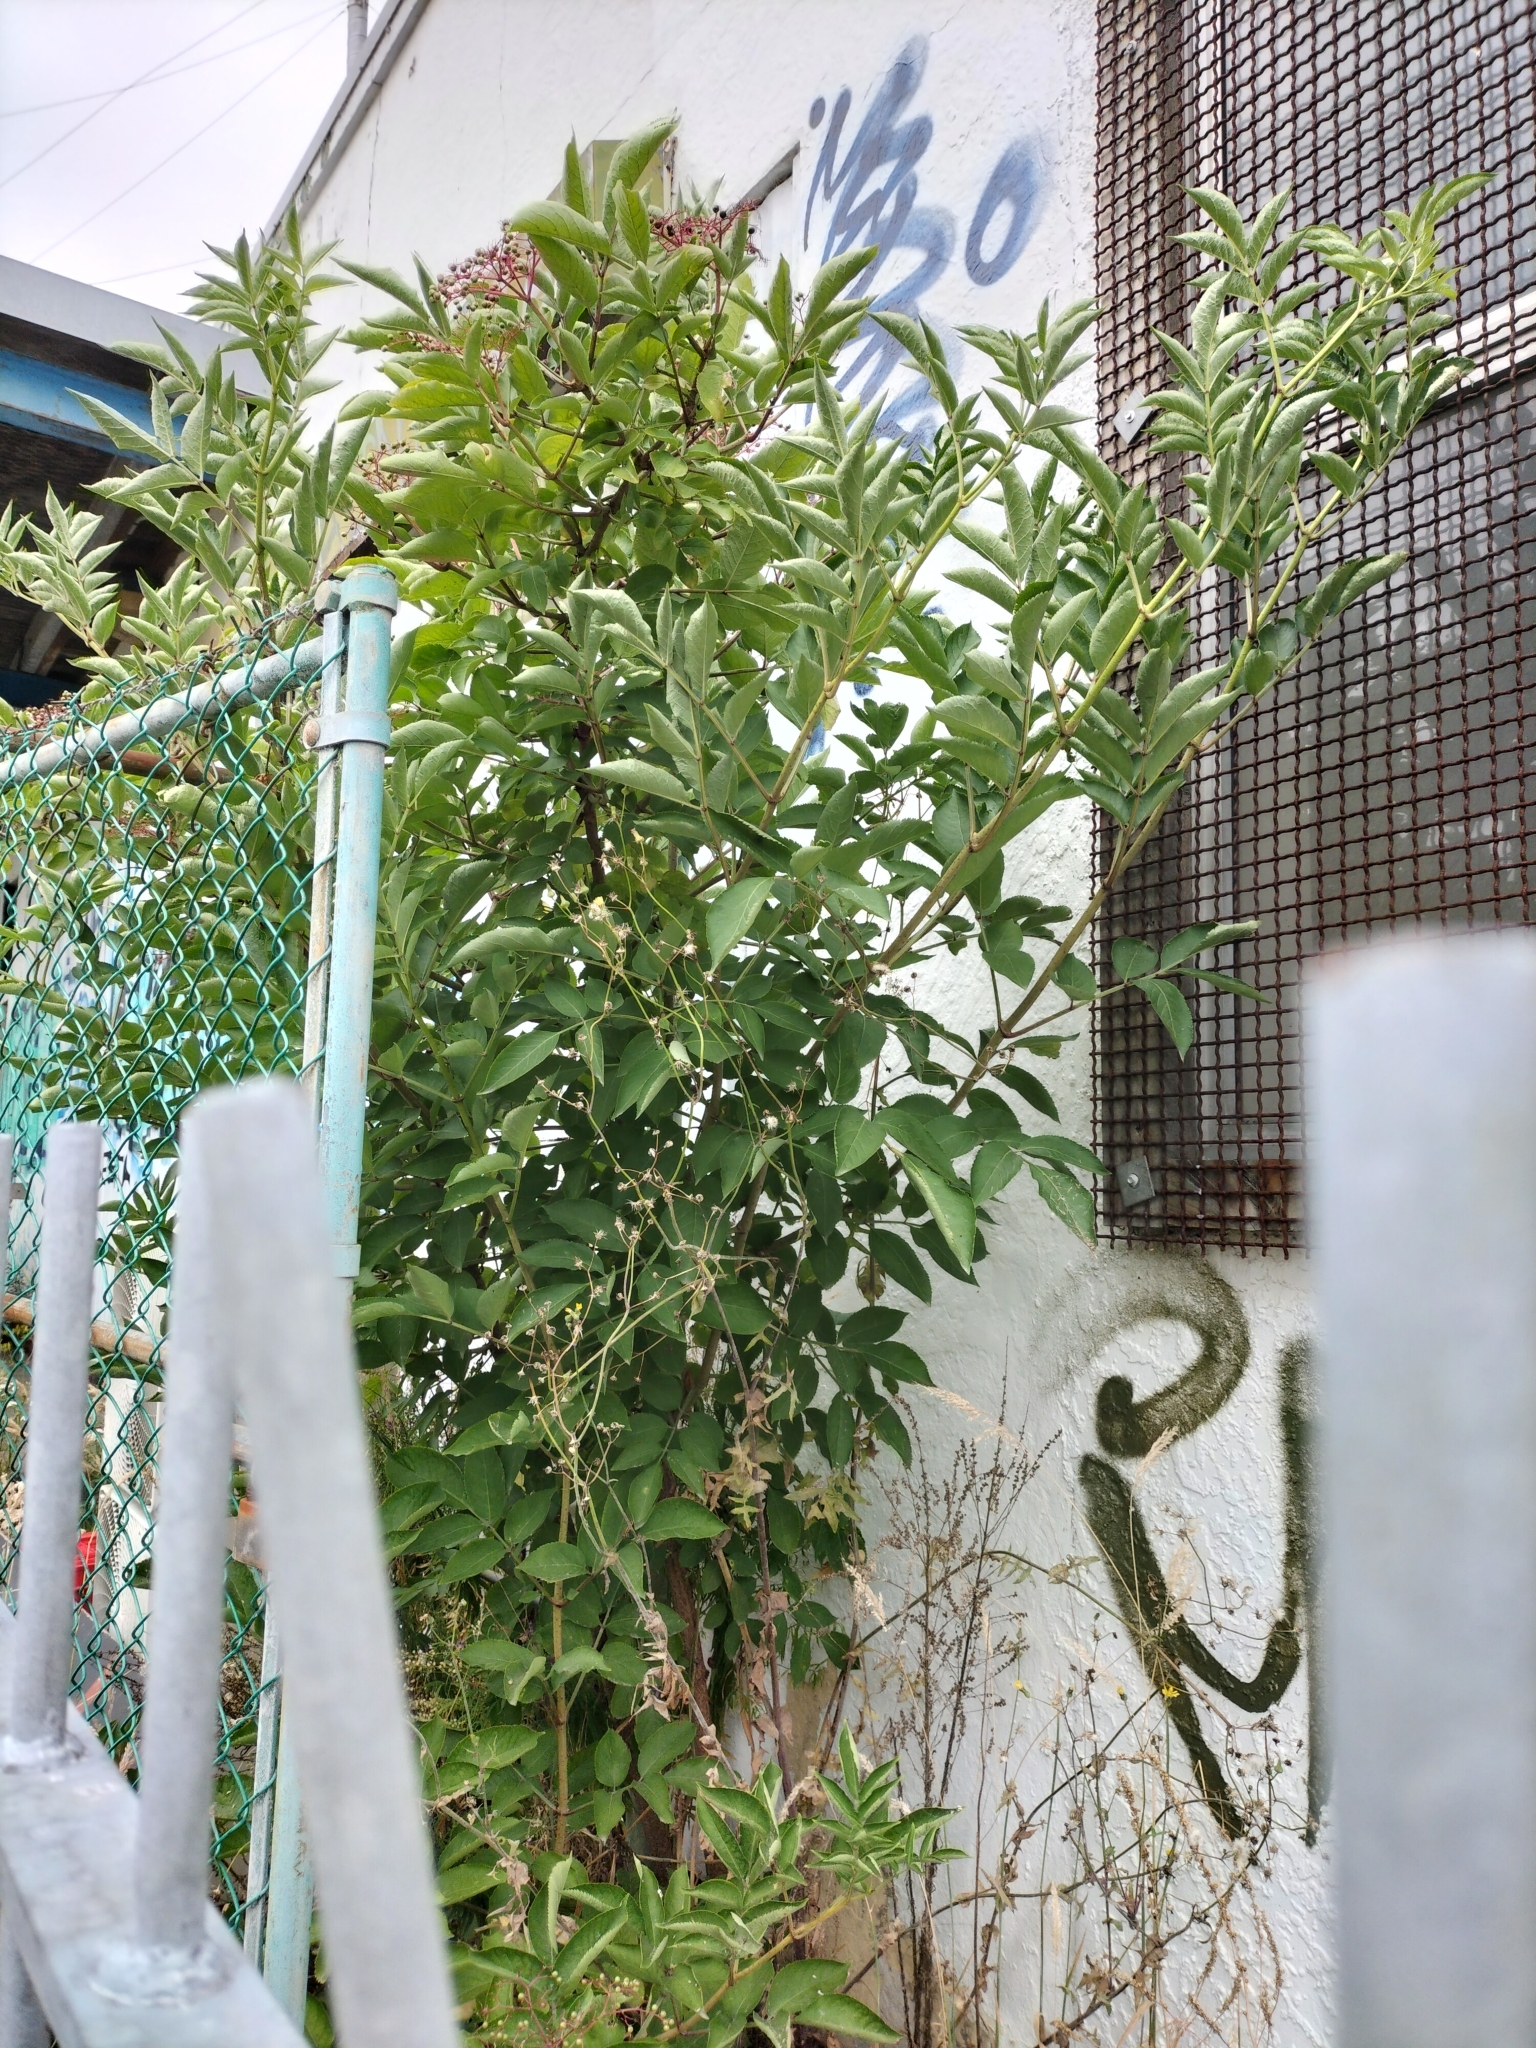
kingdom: Plantae
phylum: Tracheophyta
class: Magnoliopsida
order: Dipsacales
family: Viburnaceae
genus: Sambucus
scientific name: Sambucus nigra
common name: Elder
